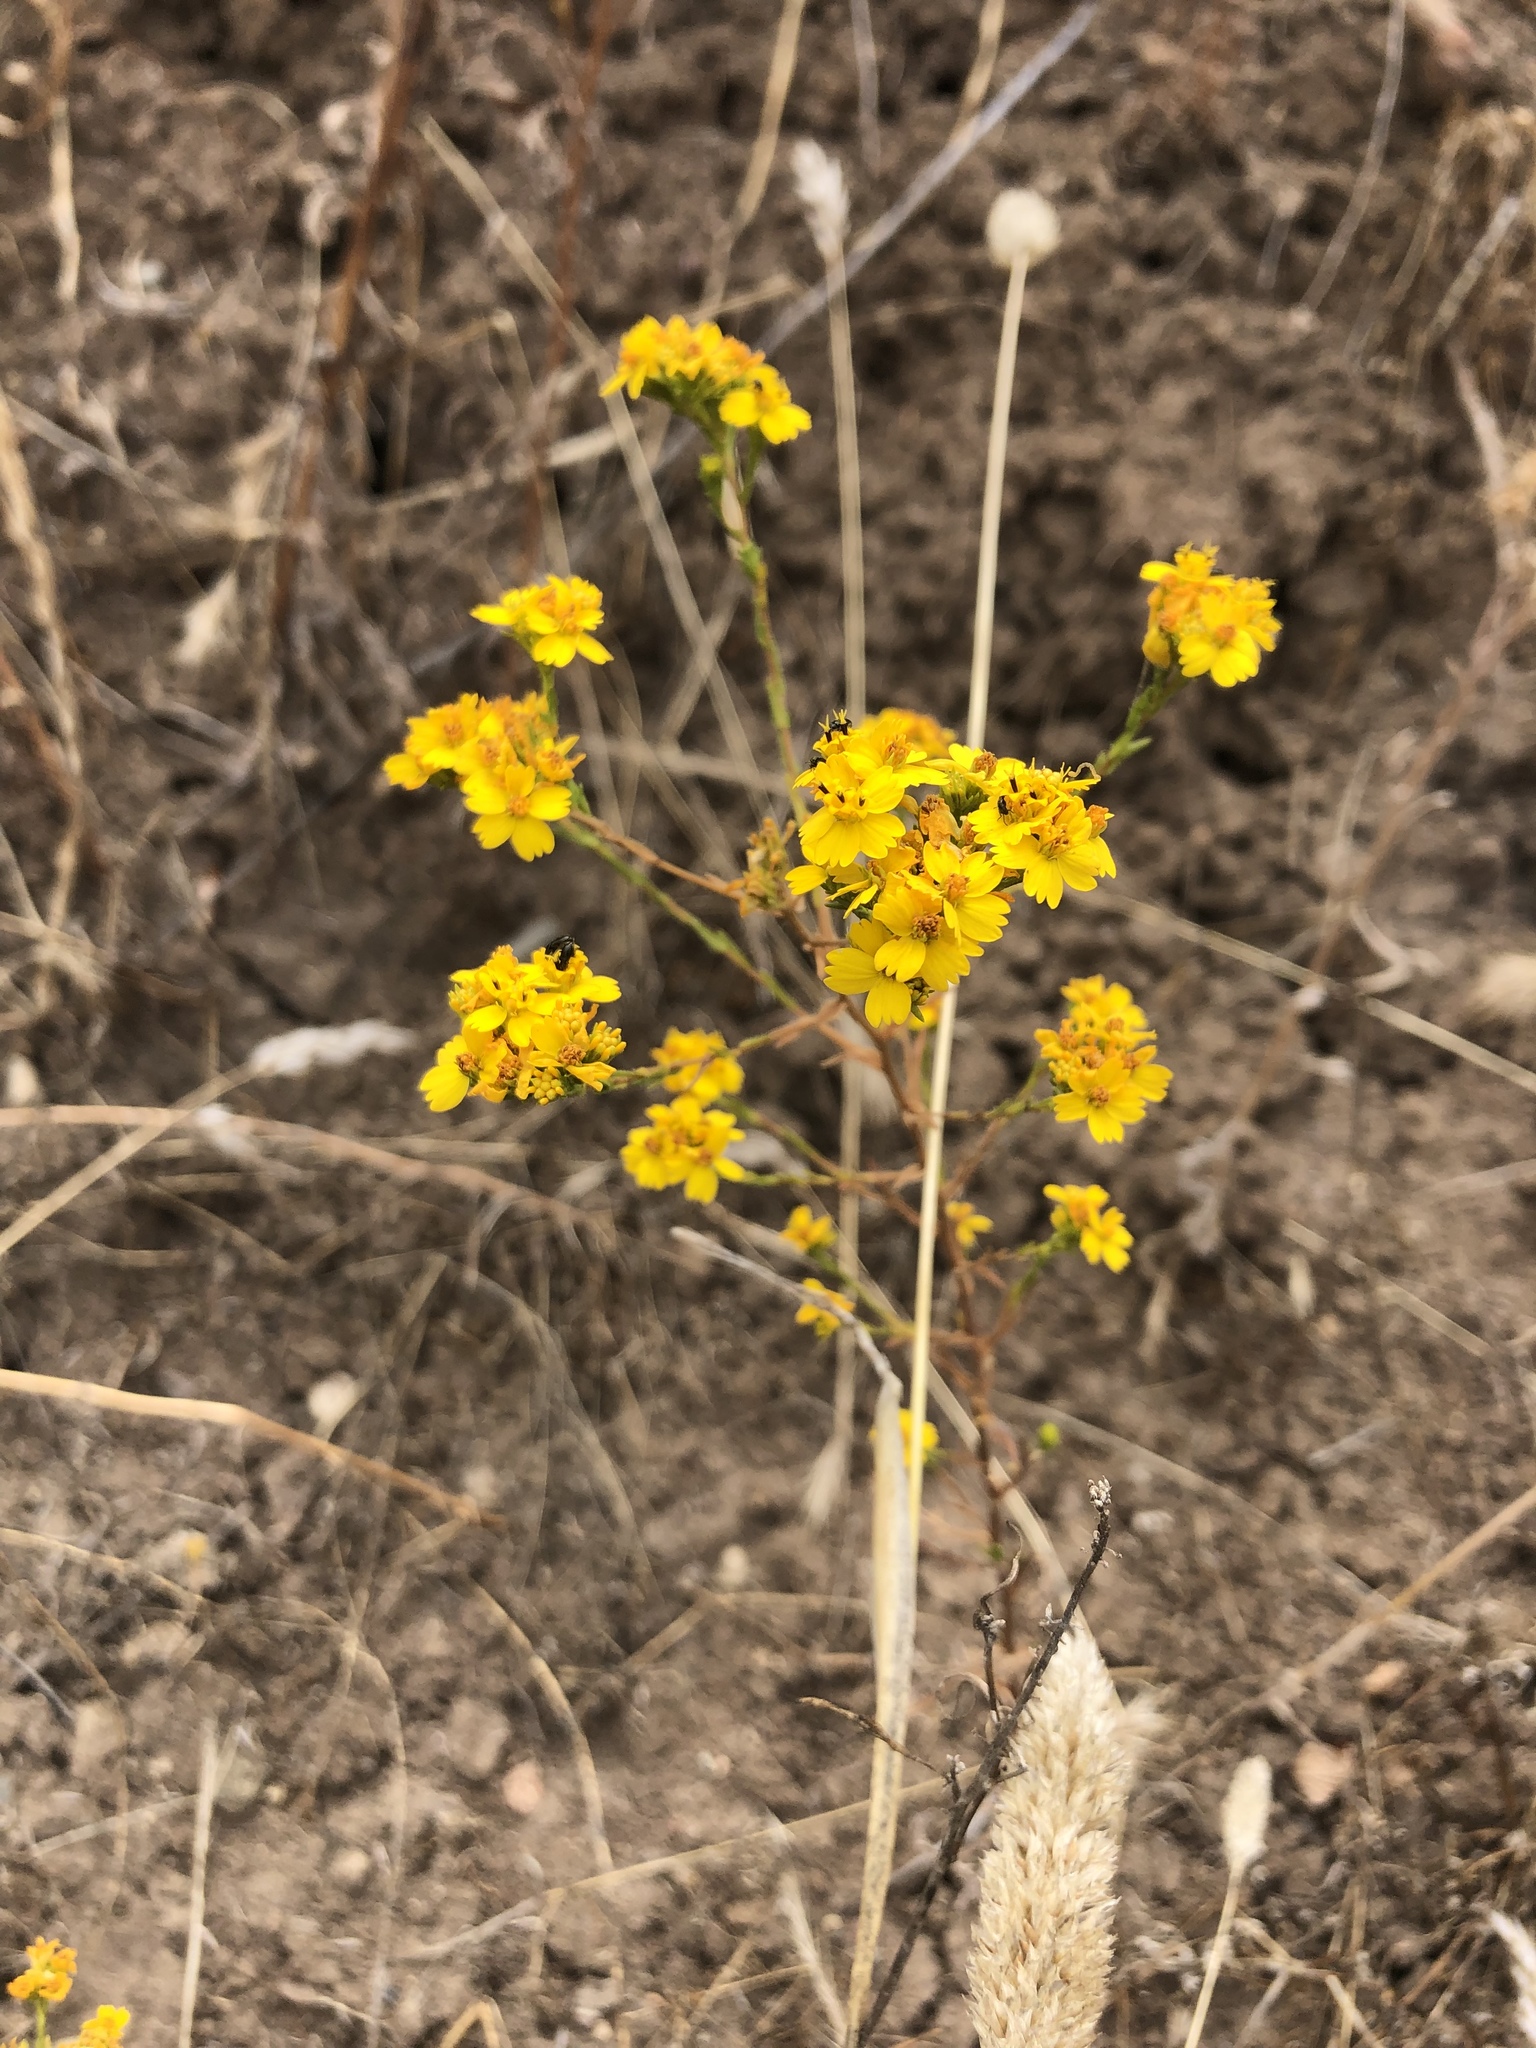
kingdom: Plantae
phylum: Tracheophyta
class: Magnoliopsida
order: Asterales
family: Asteraceae
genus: Deinandra
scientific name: Deinandra fasciculata
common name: Clustered tarweed
